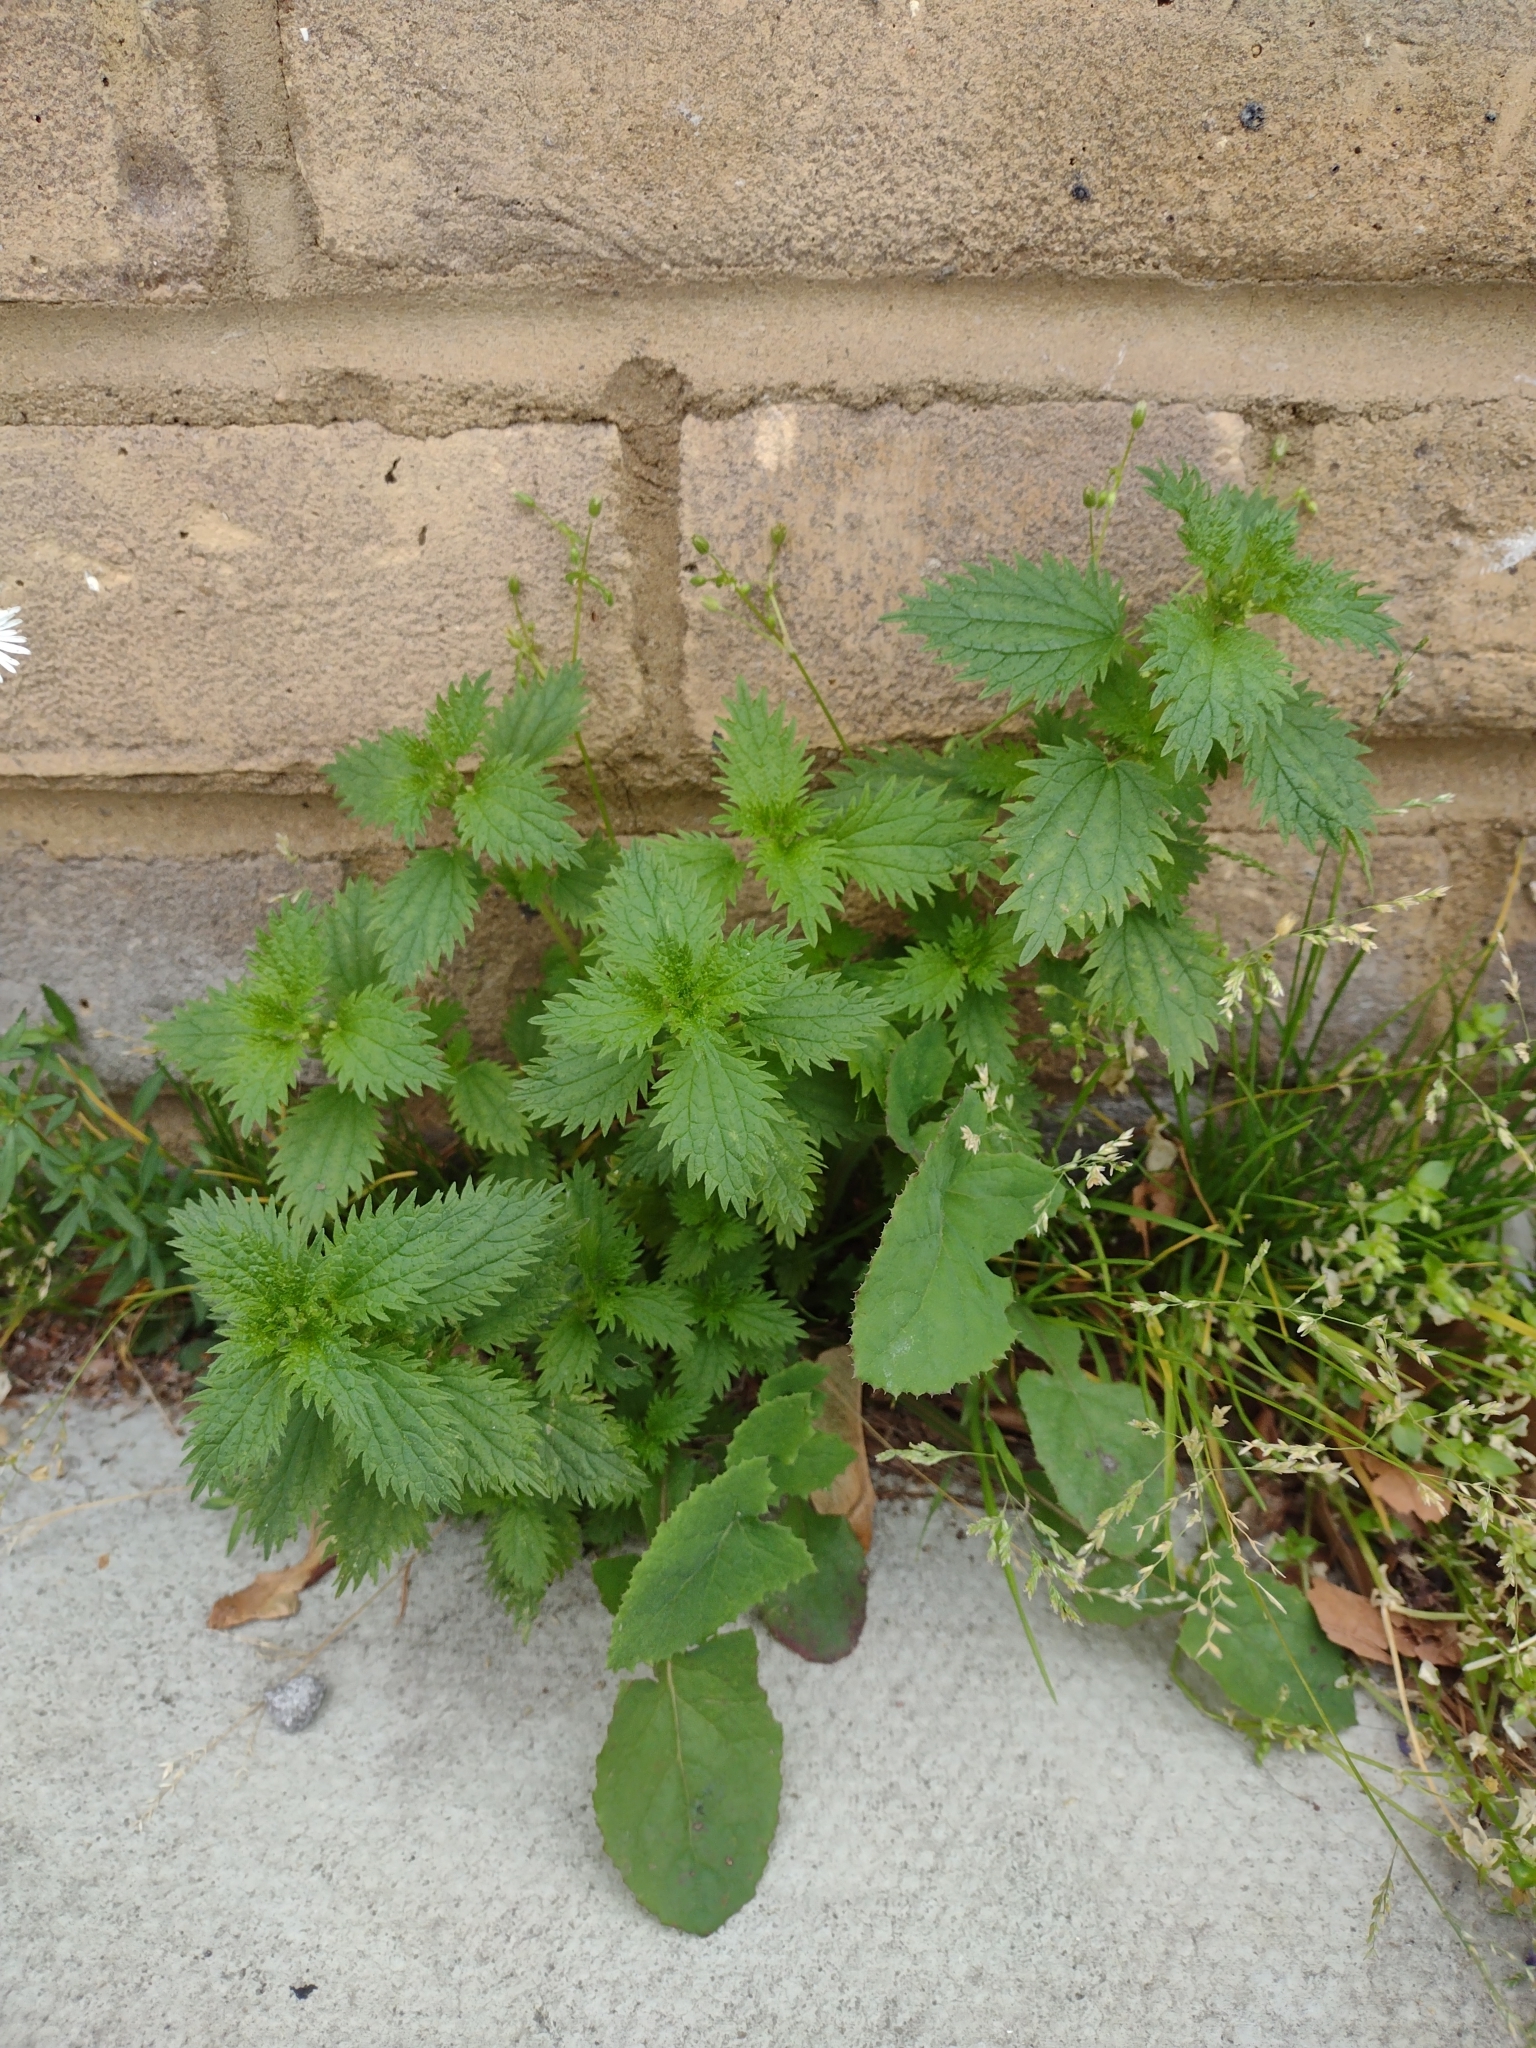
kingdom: Plantae
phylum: Tracheophyta
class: Magnoliopsida
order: Rosales
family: Urticaceae
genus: Urtica
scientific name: Urtica urens
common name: Dwarf nettle
